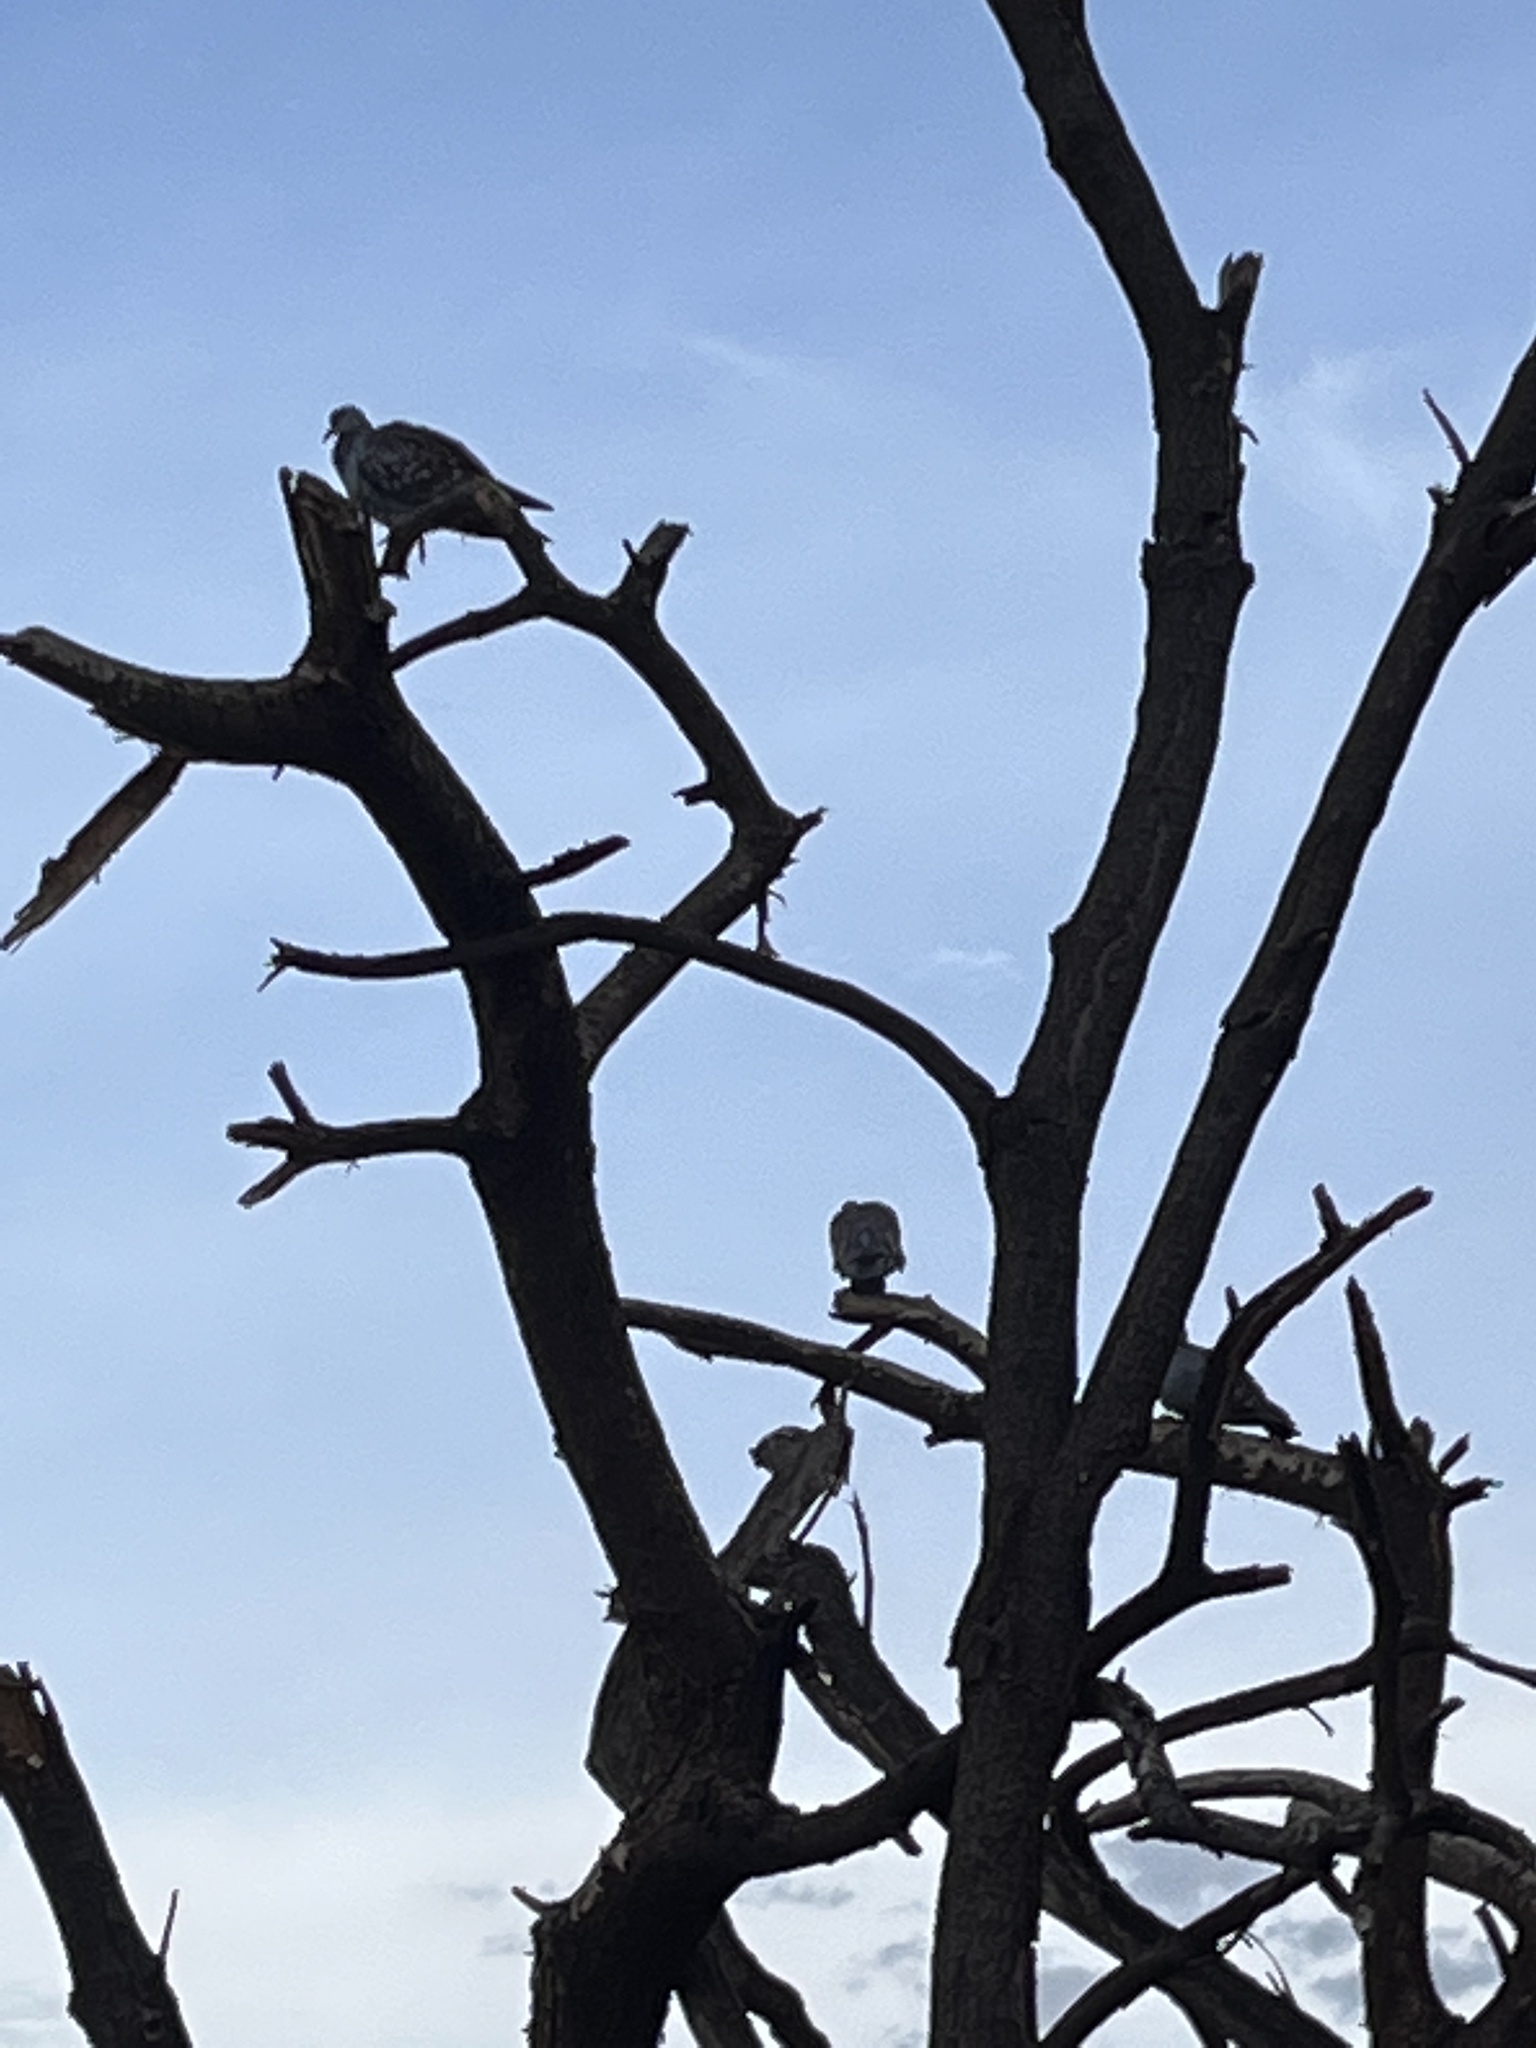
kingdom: Animalia
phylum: Chordata
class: Aves
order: Columbiformes
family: Columbidae
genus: Columba
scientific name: Columba guinea
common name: Speckled pigeon
